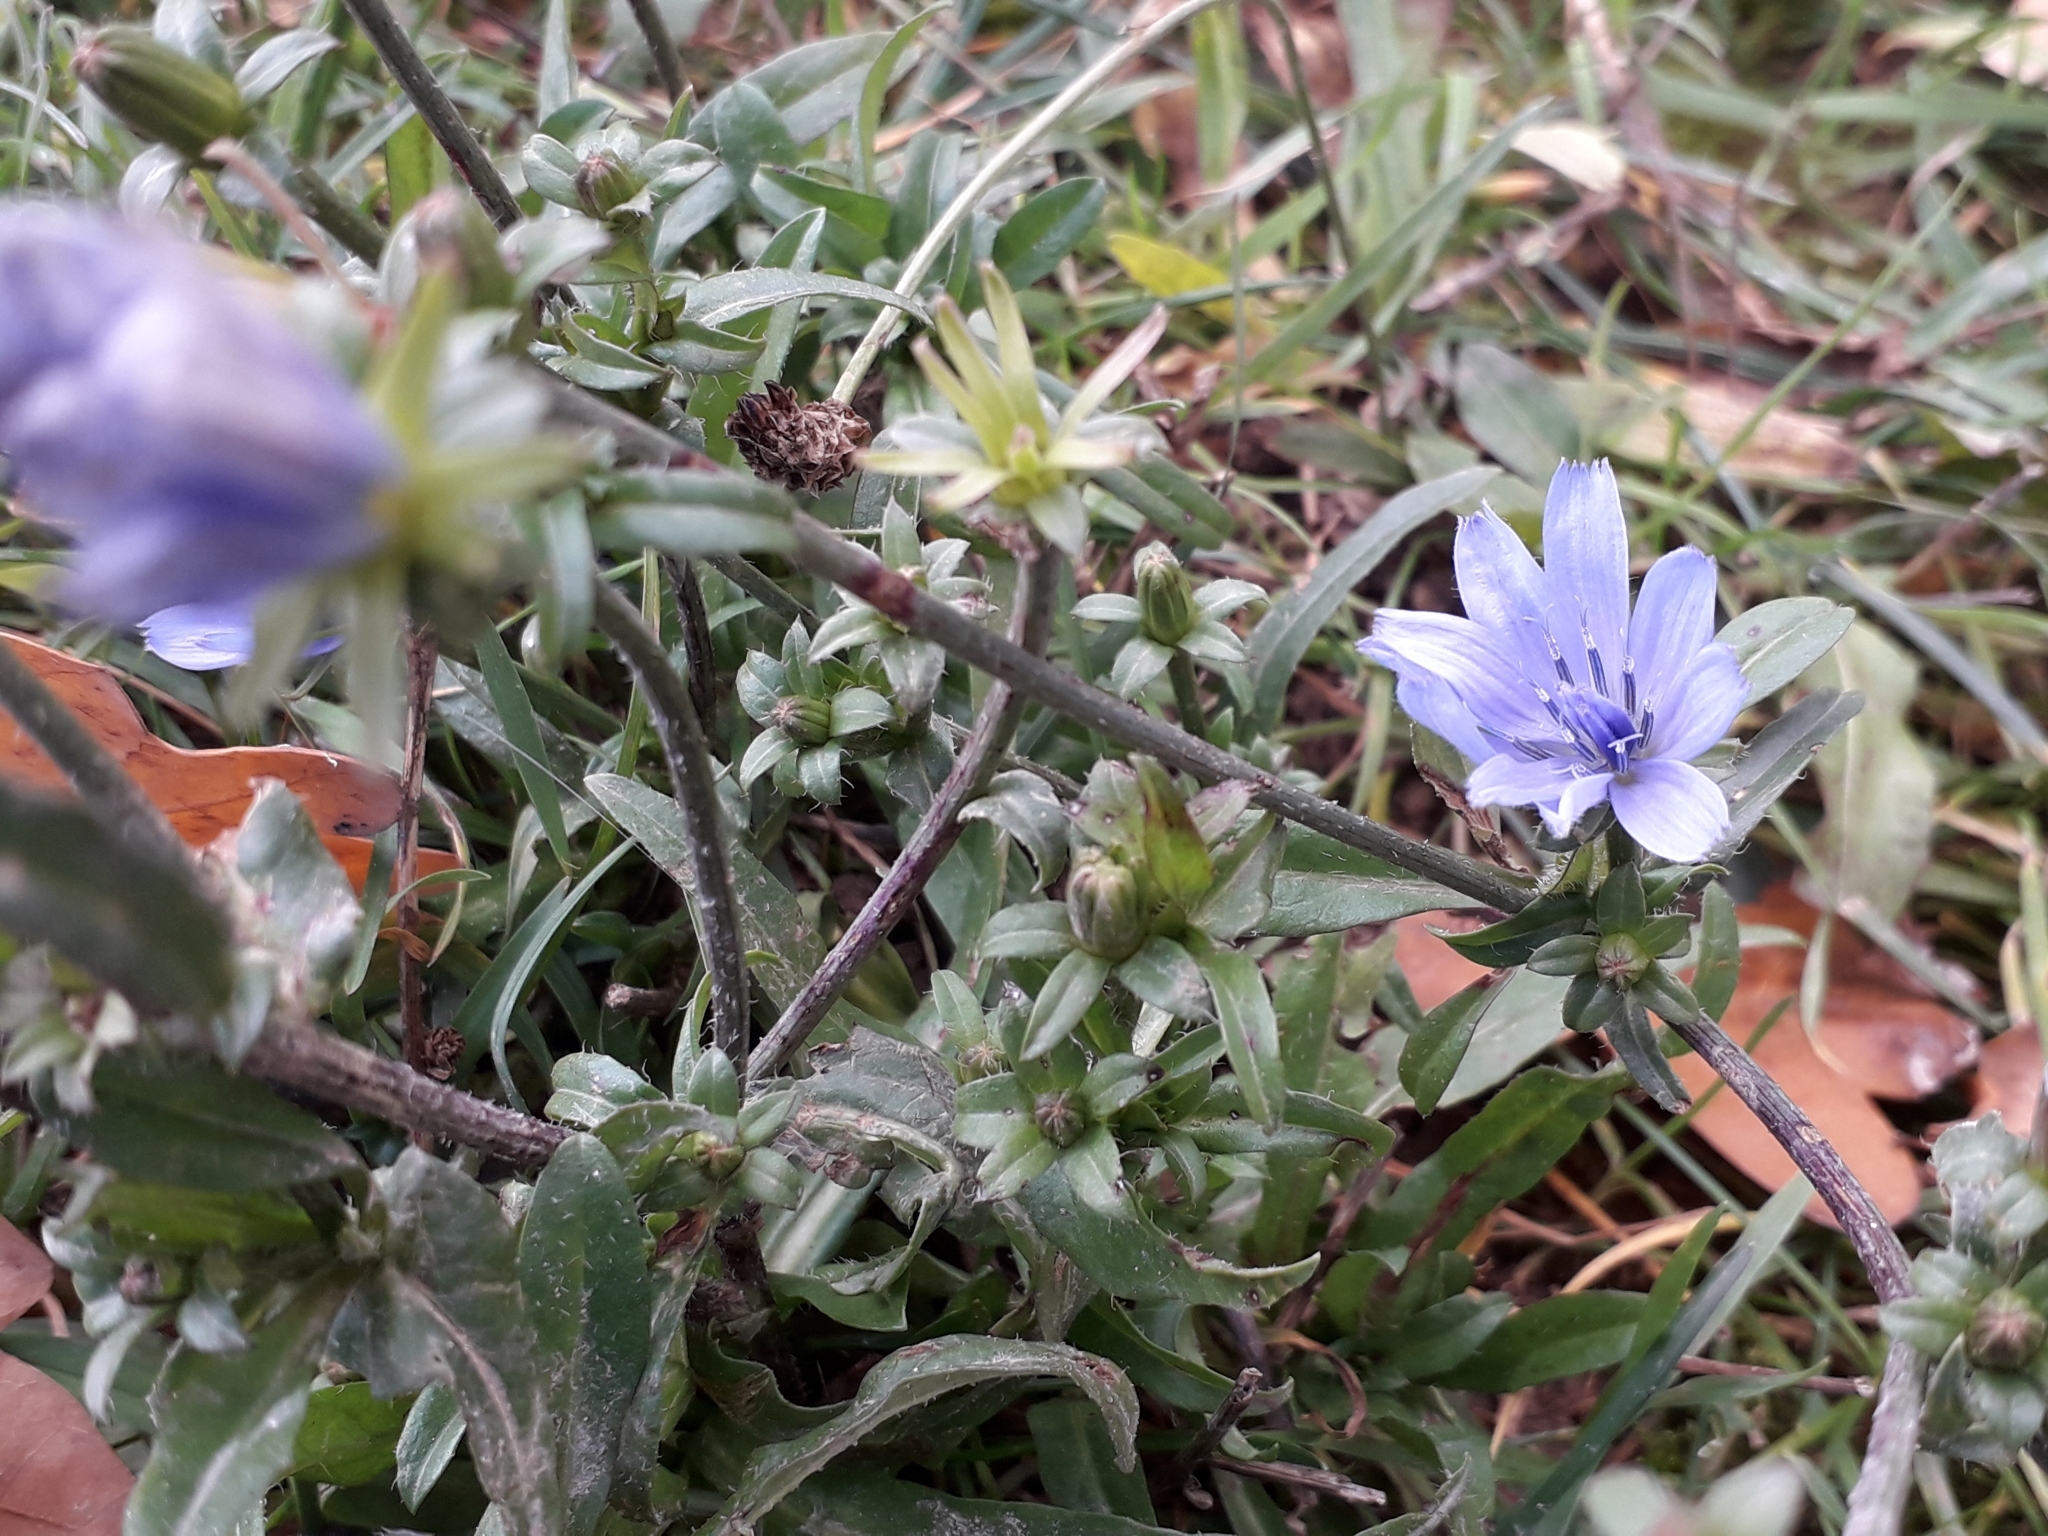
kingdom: Plantae
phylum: Tracheophyta
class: Magnoliopsida
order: Asterales
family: Asteraceae
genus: Cichorium
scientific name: Cichorium intybus
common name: Chicory
